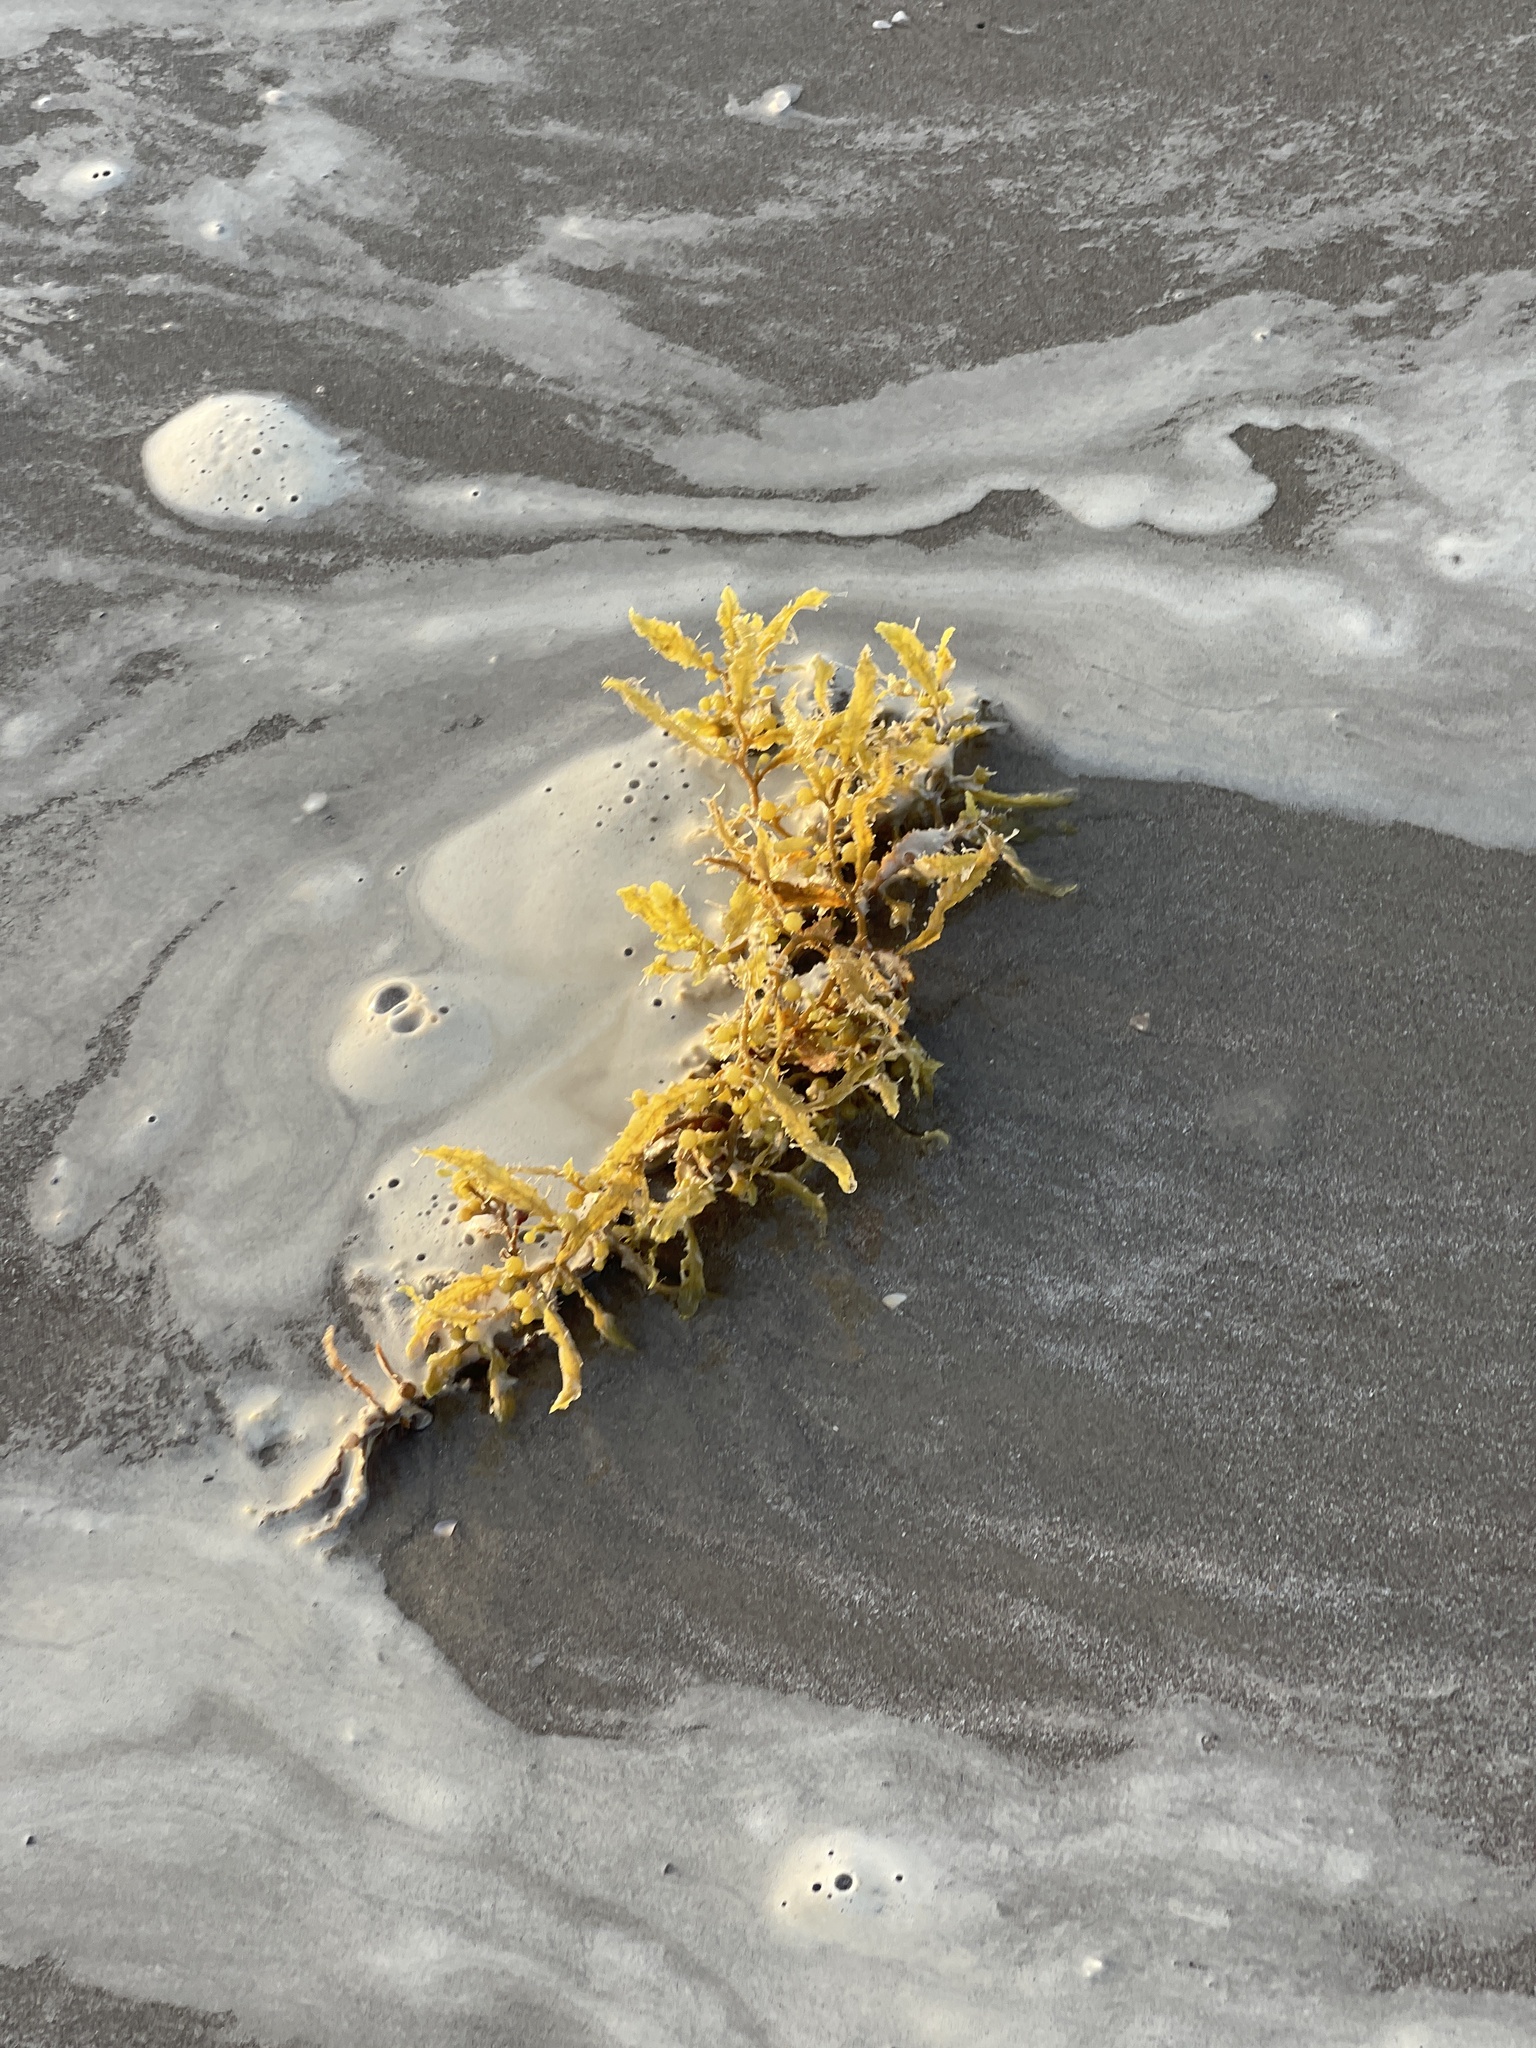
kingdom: Chromista
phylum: Ochrophyta
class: Phaeophyceae
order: Fucales
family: Sargassaceae
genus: Sargassum
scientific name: Sargassum fluitans
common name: Sargassum seaweed
